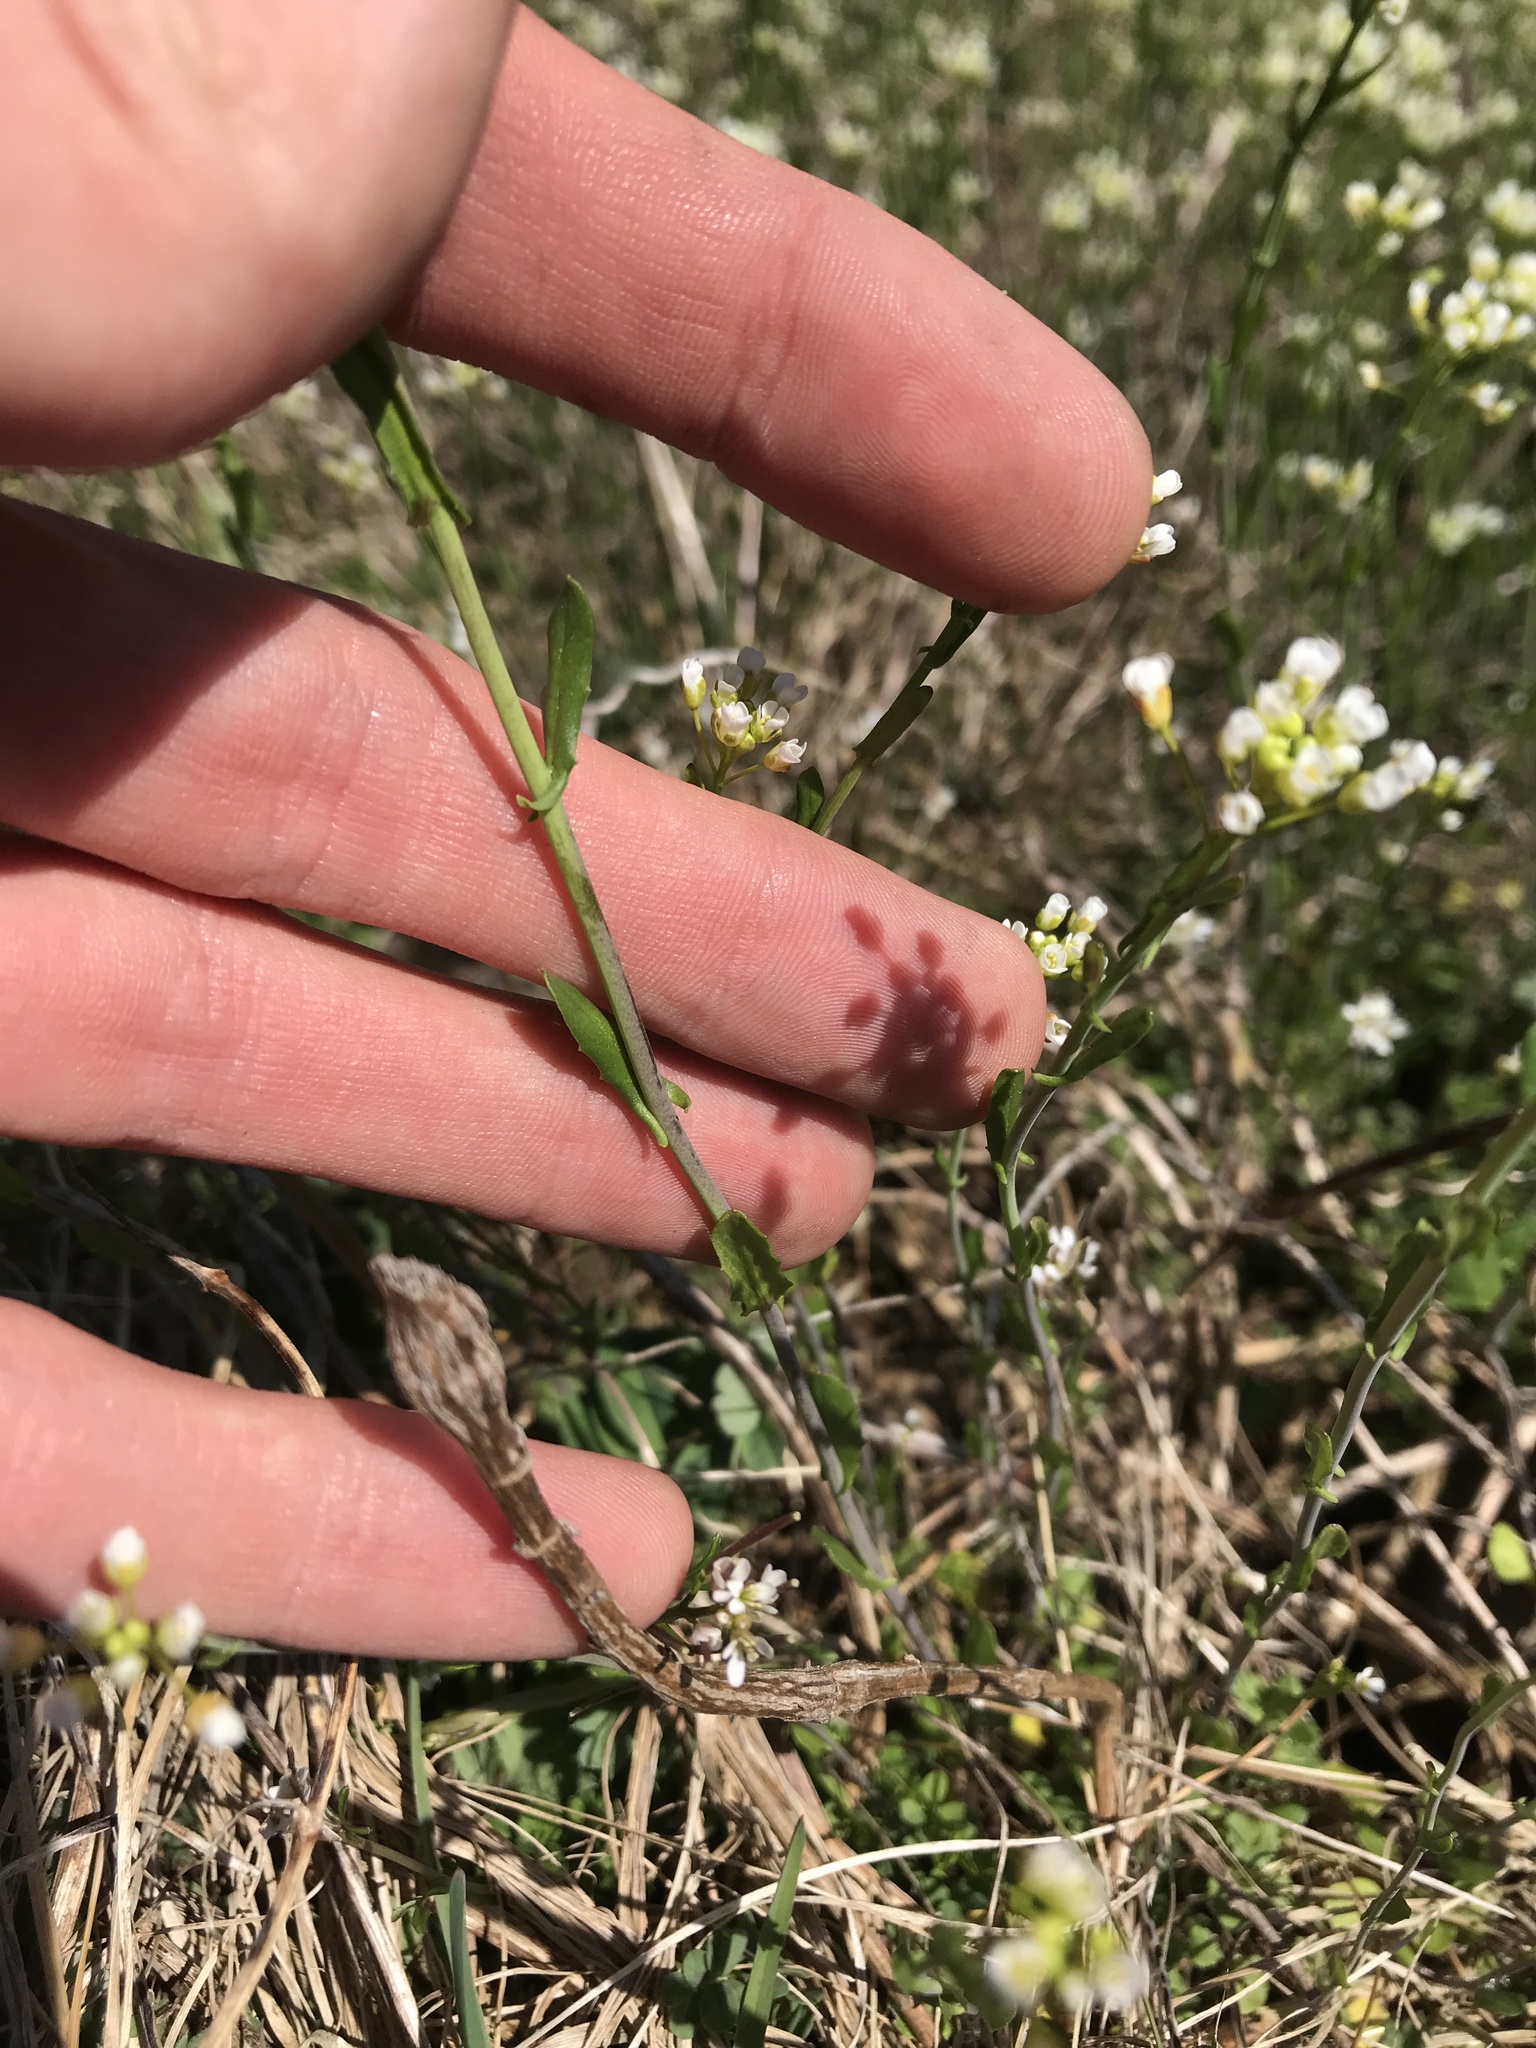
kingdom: Plantae
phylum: Tracheophyta
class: Magnoliopsida
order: Brassicales
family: Brassicaceae
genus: Mummenhoffia
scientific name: Mummenhoffia alliacea
